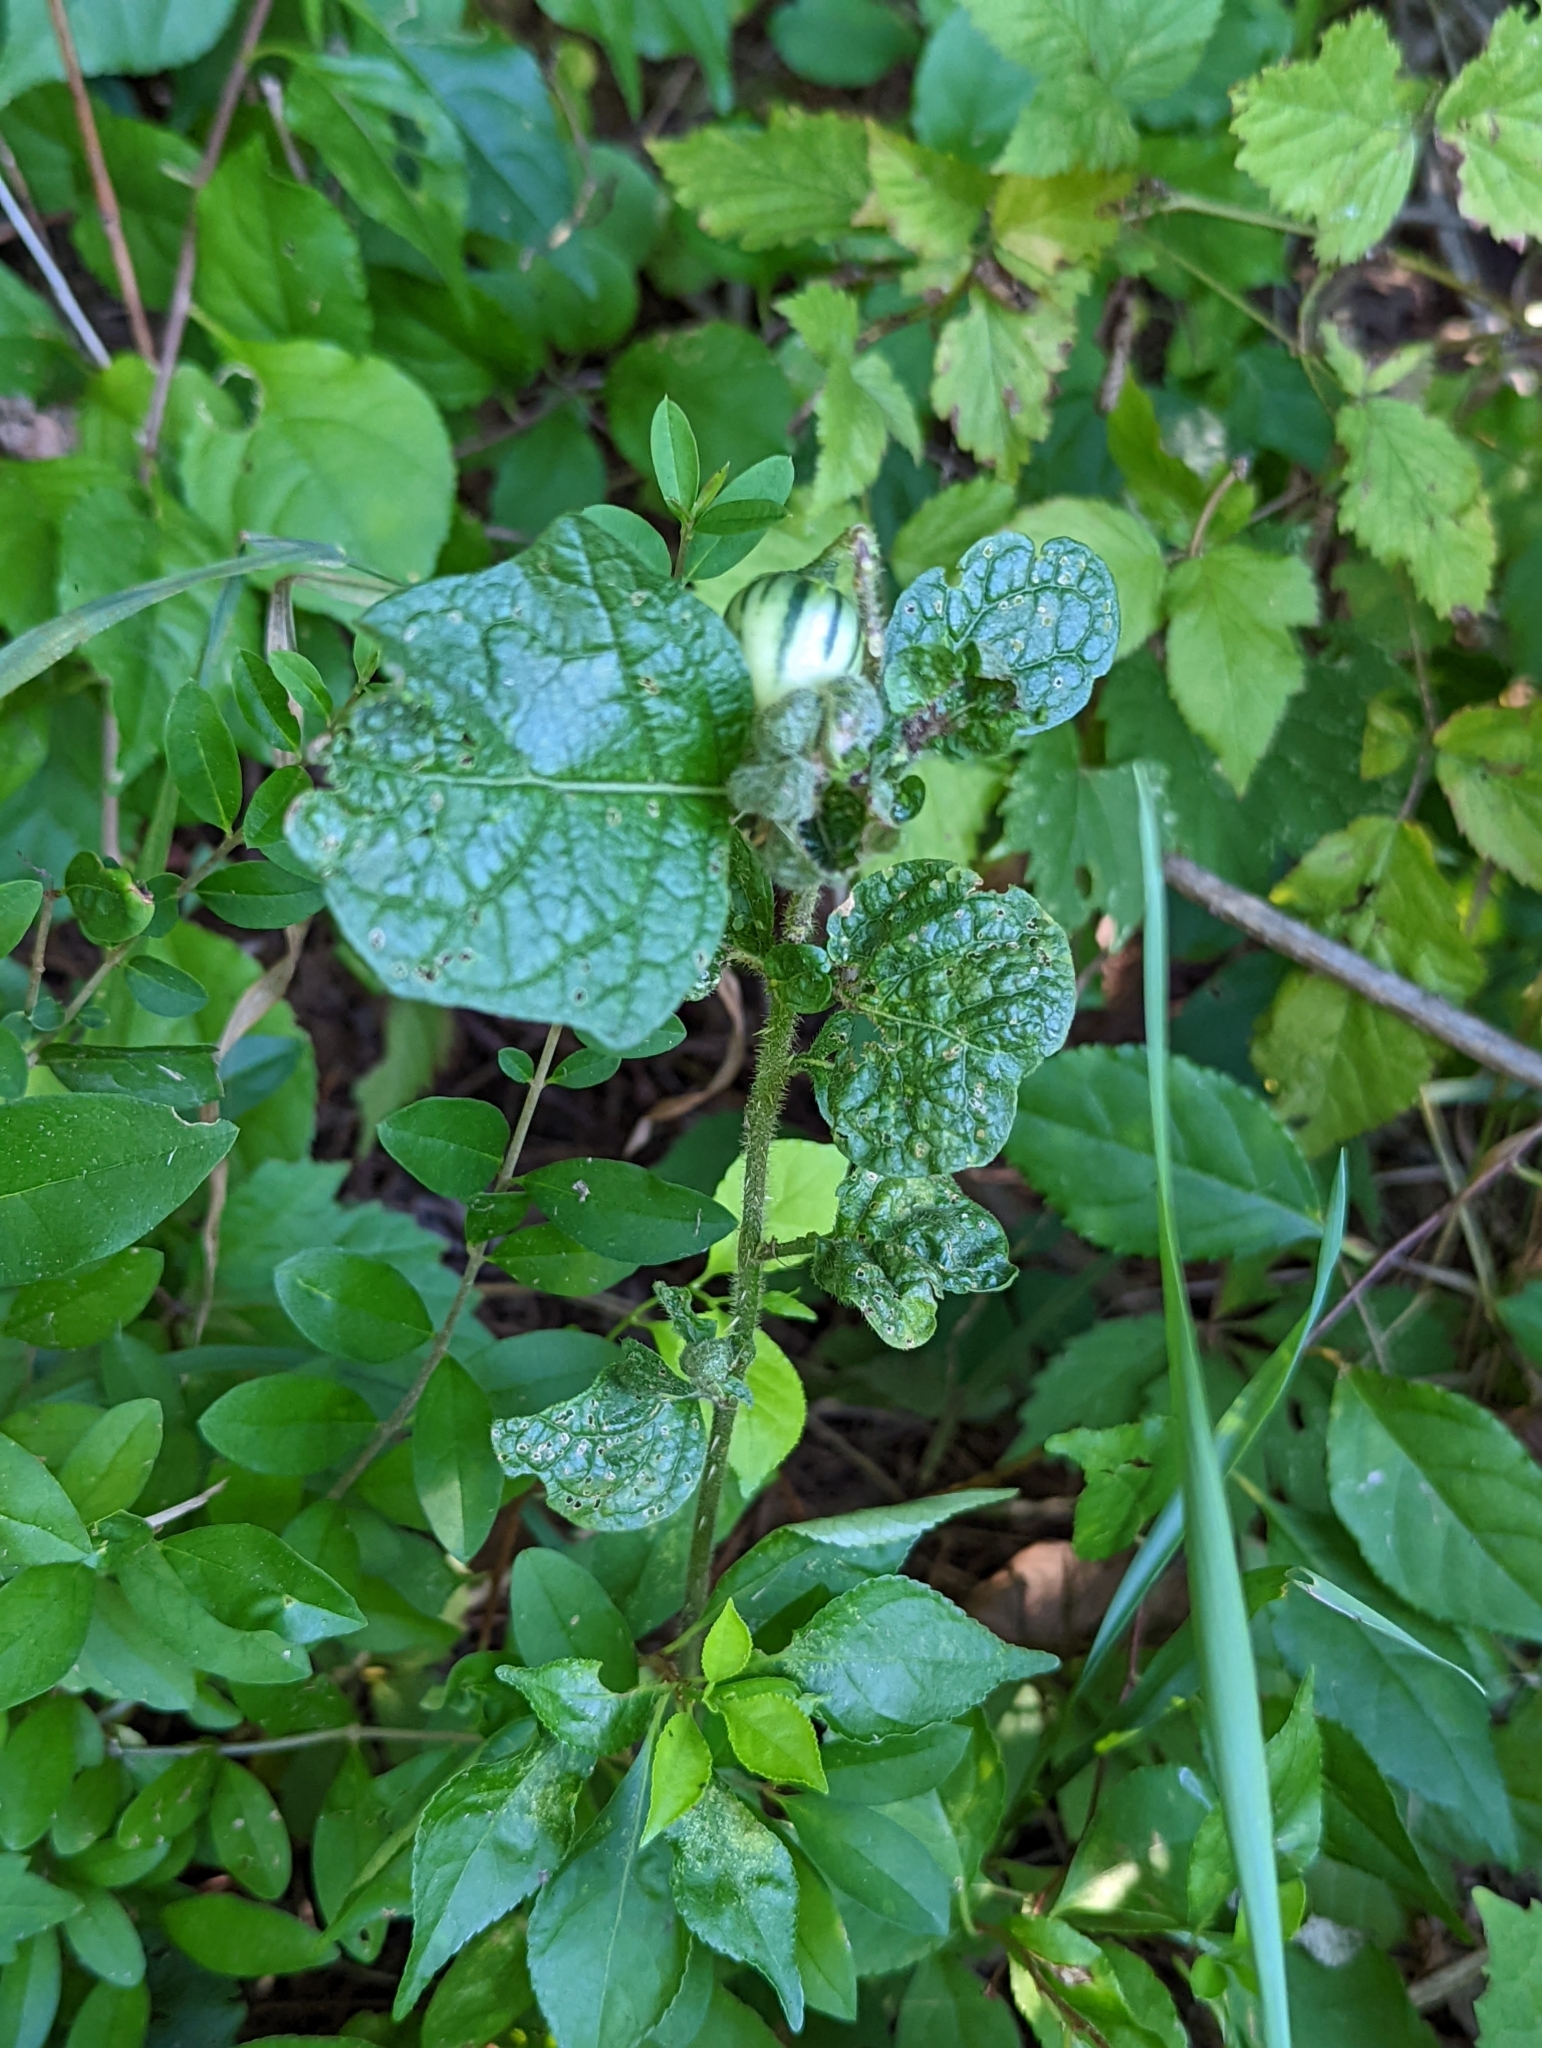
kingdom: Plantae
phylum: Tracheophyta
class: Magnoliopsida
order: Solanales
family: Solanaceae
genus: Solanum
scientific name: Solanum carolinense
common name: Horse-nettle
